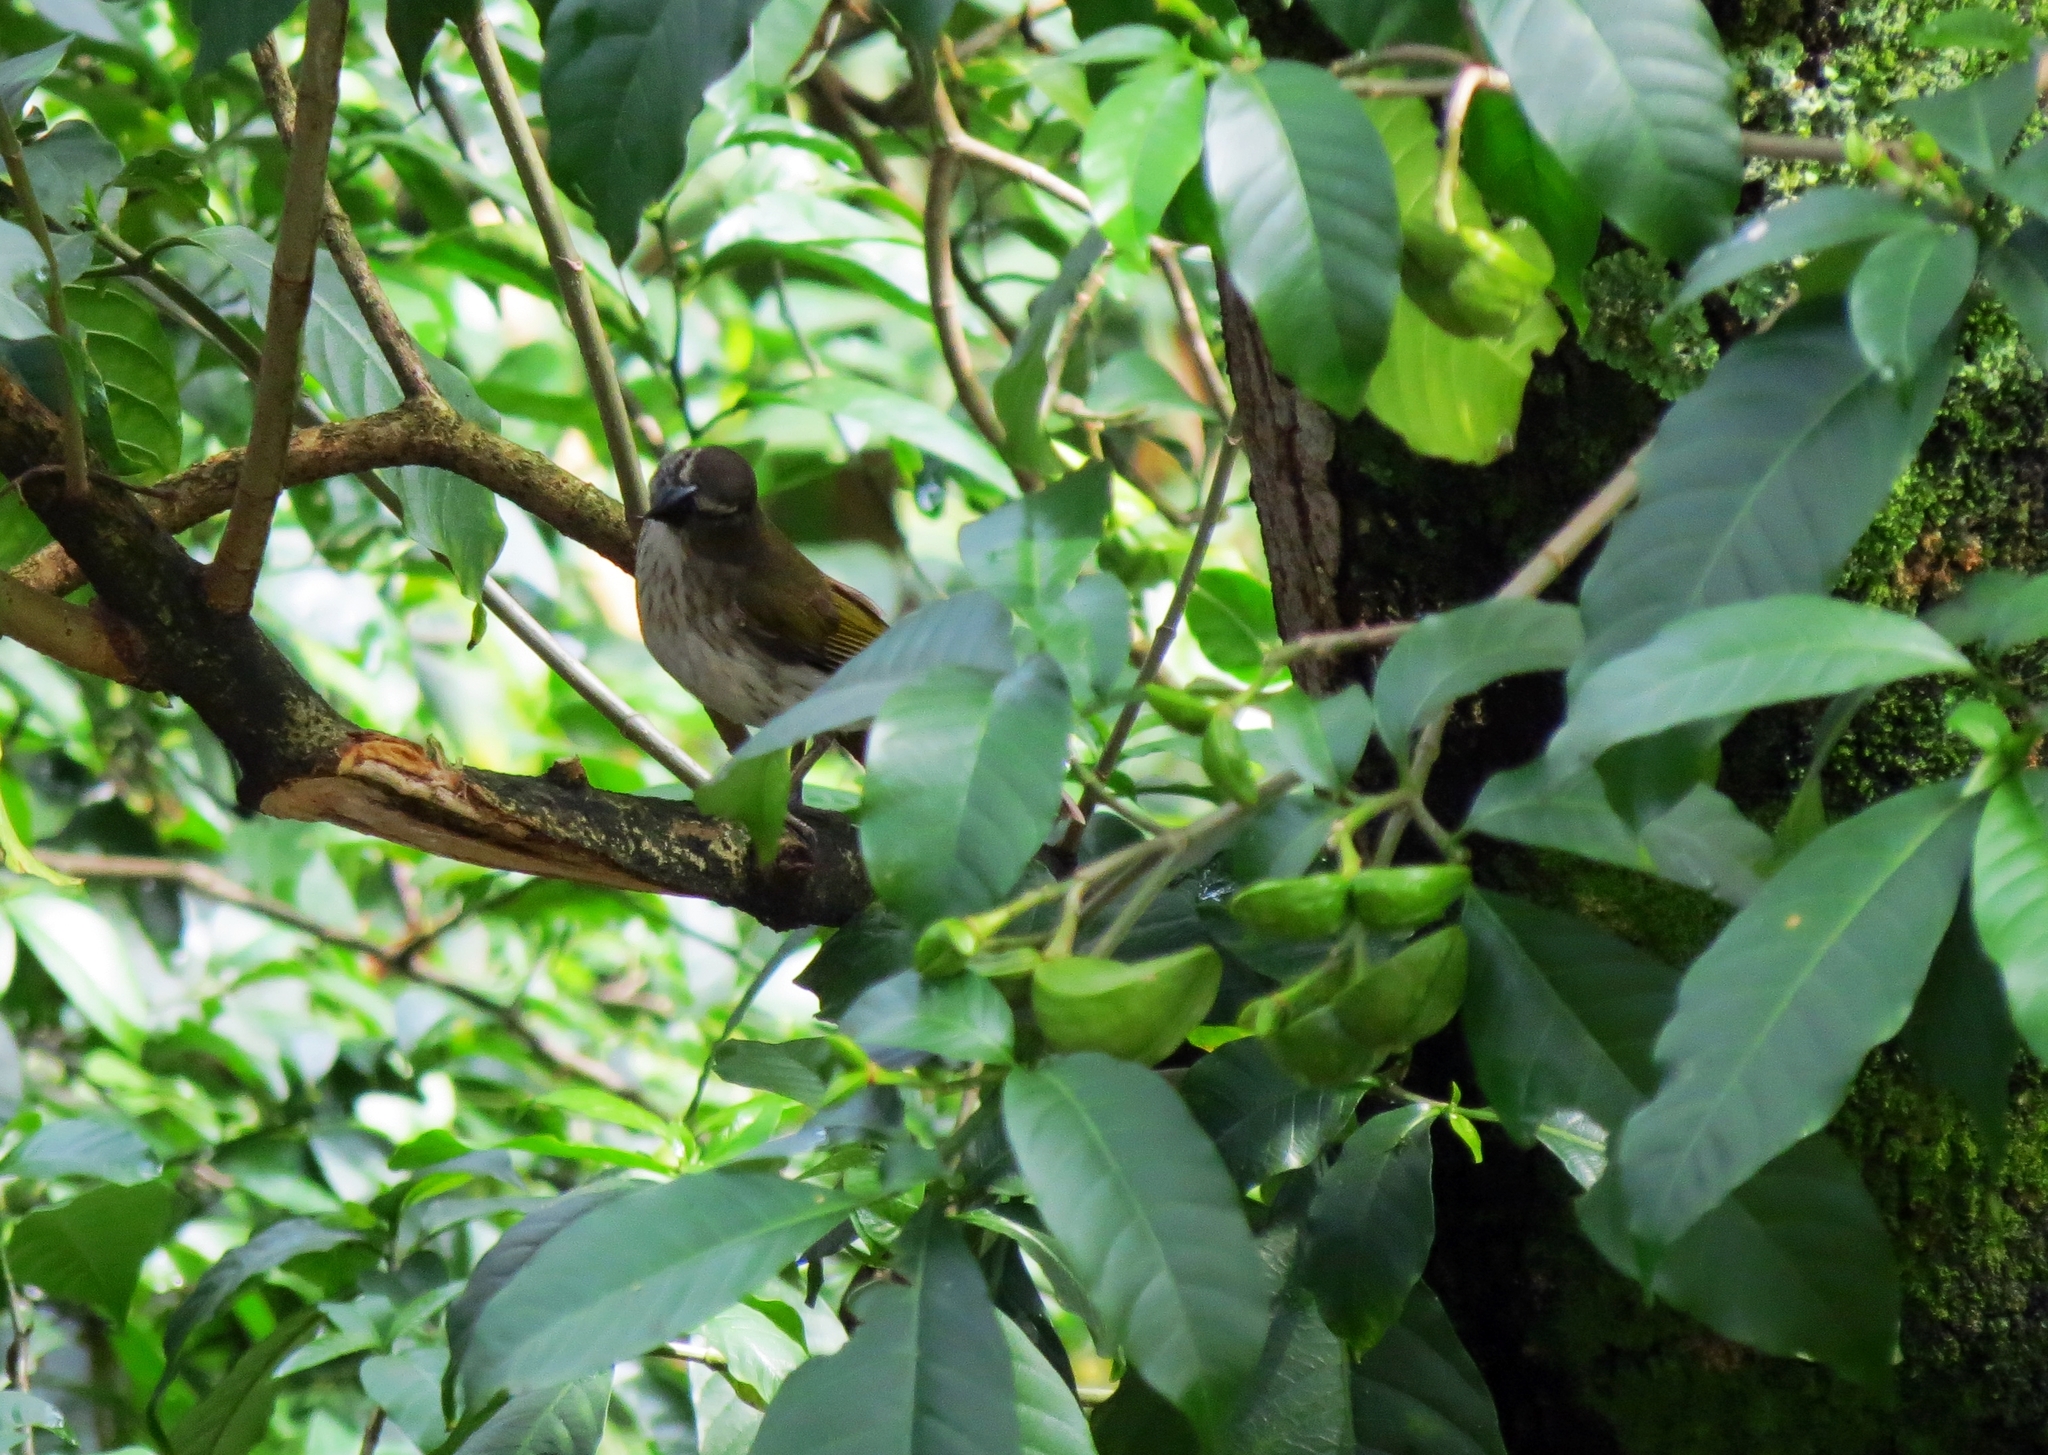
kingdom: Animalia
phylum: Chordata
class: Aves
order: Passeriformes
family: Thraupidae
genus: Saltator
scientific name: Saltator striatipectus
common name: Streaked saltator
